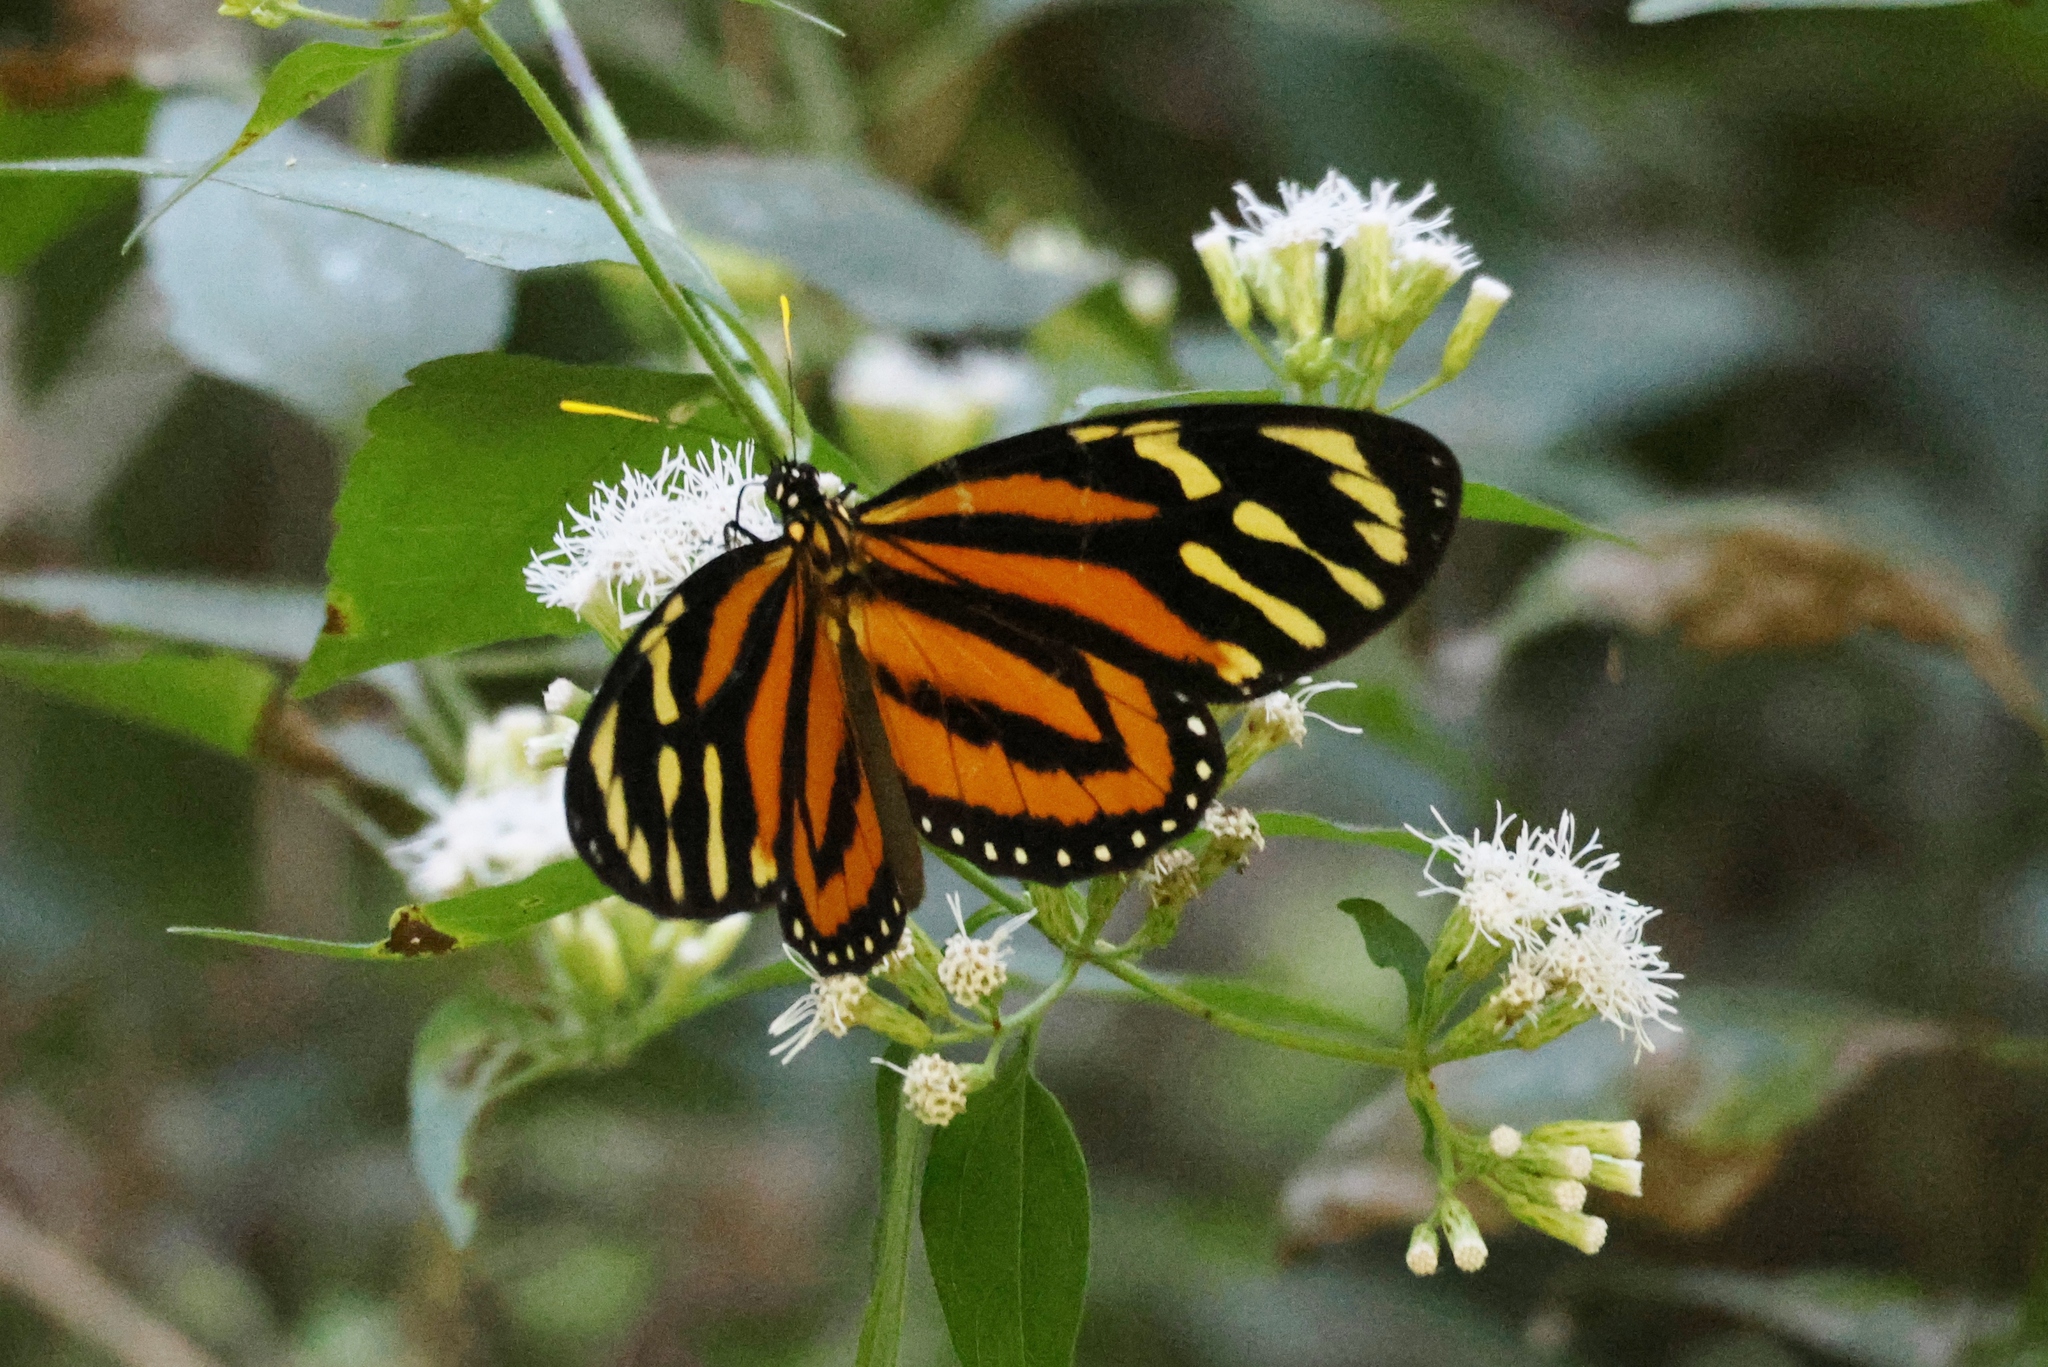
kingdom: Animalia
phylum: Arthropoda
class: Insecta
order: Lepidoptera
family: Nymphalidae
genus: Lycorea
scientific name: Lycorea cleobaea
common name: Tiger mimic-queen
